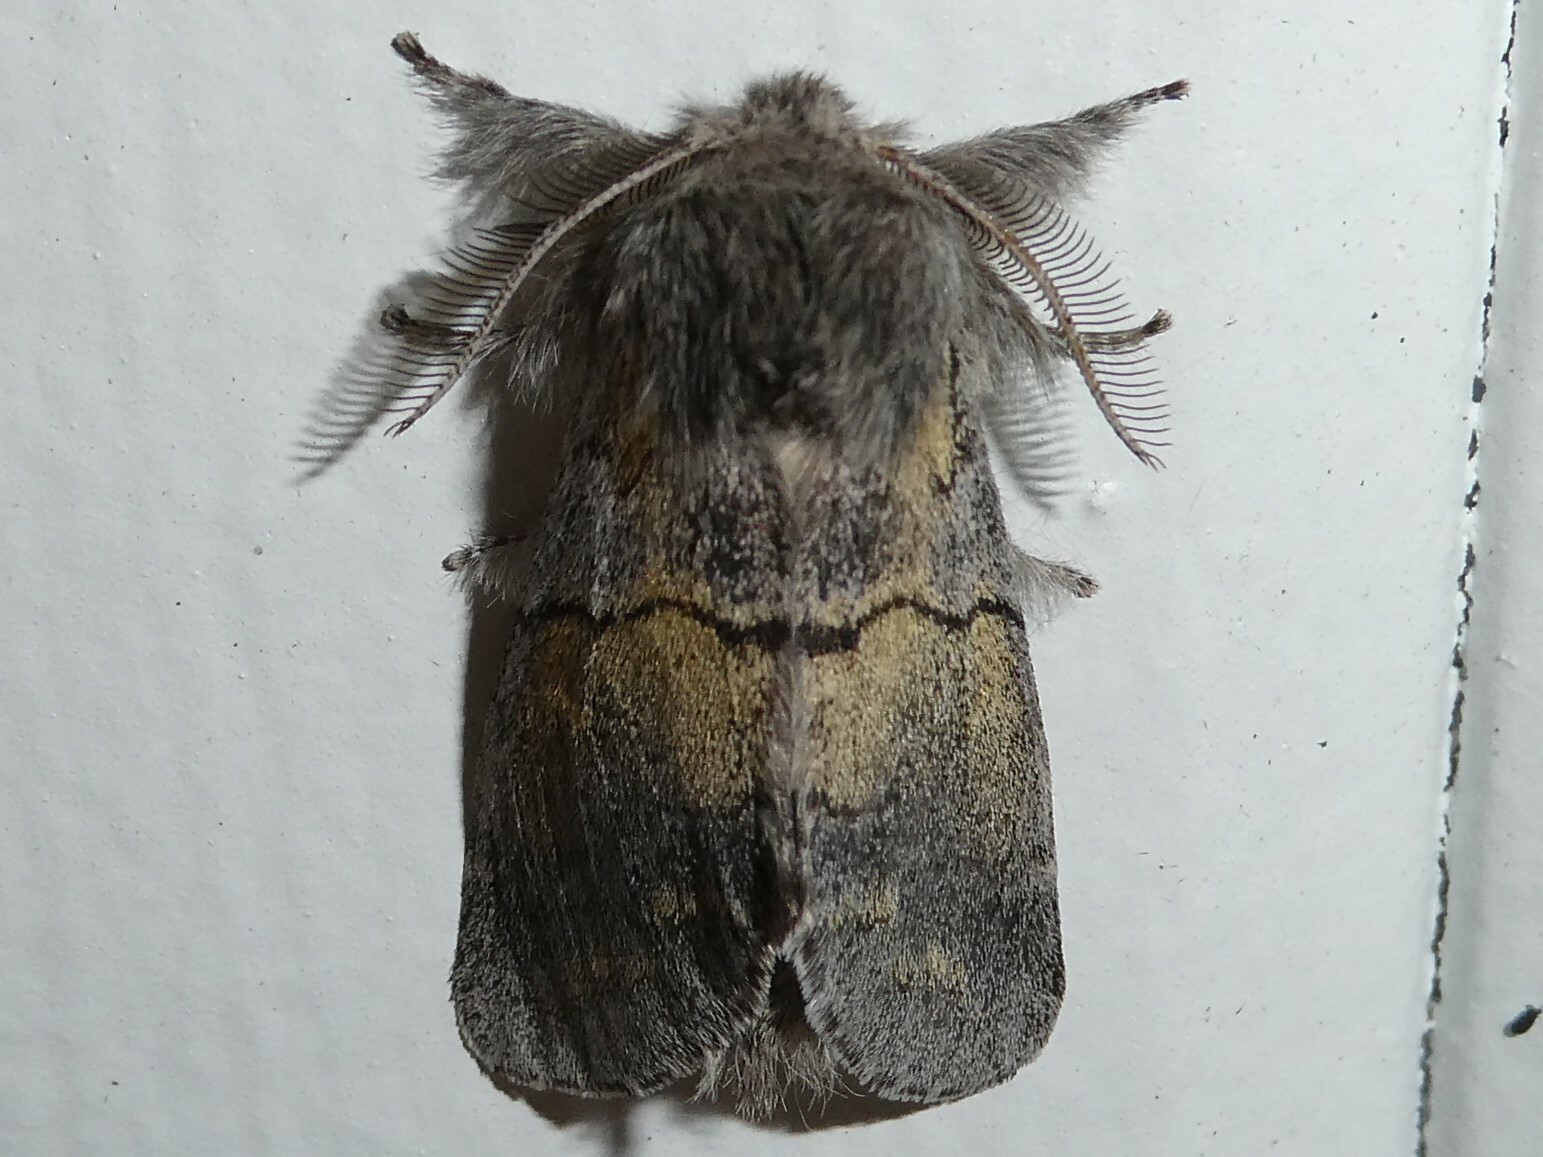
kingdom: Animalia
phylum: Arthropoda
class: Insecta
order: Lepidoptera
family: Notodontidae
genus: Gluphisia
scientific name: Gluphisia lintneri
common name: Lintner's gluphisia moth
